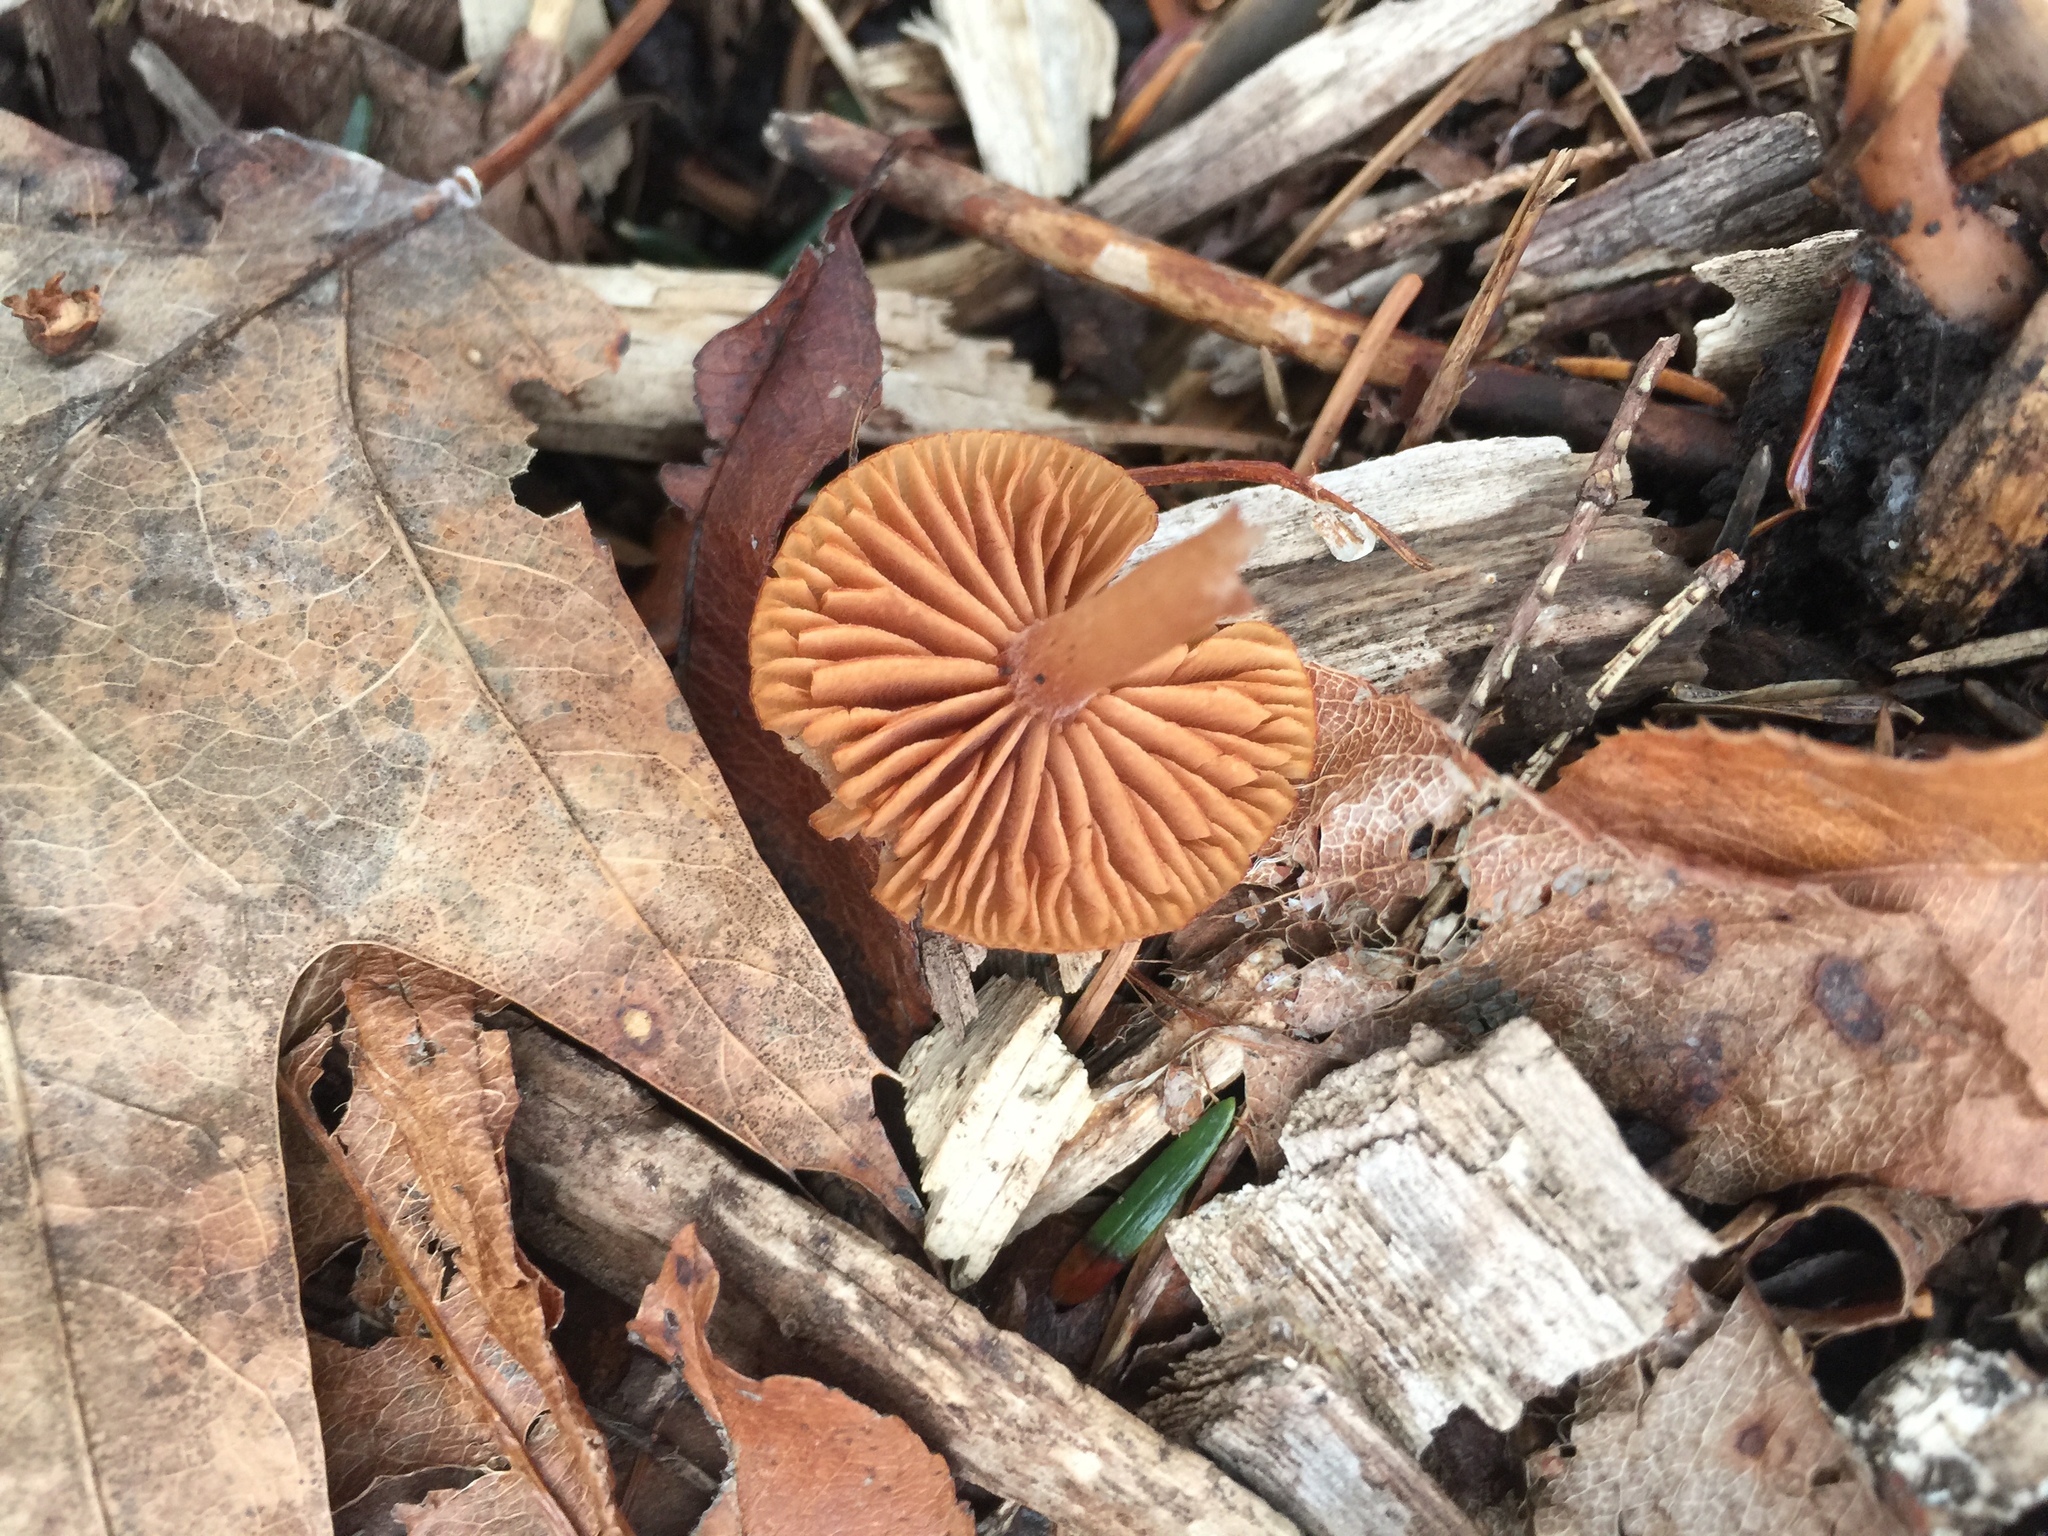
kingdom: Fungi
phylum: Basidiomycota
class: Agaricomycetes
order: Agaricales
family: Tubariaceae
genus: Tubaria
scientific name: Tubaria furfuracea
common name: Scurfy twiglet
